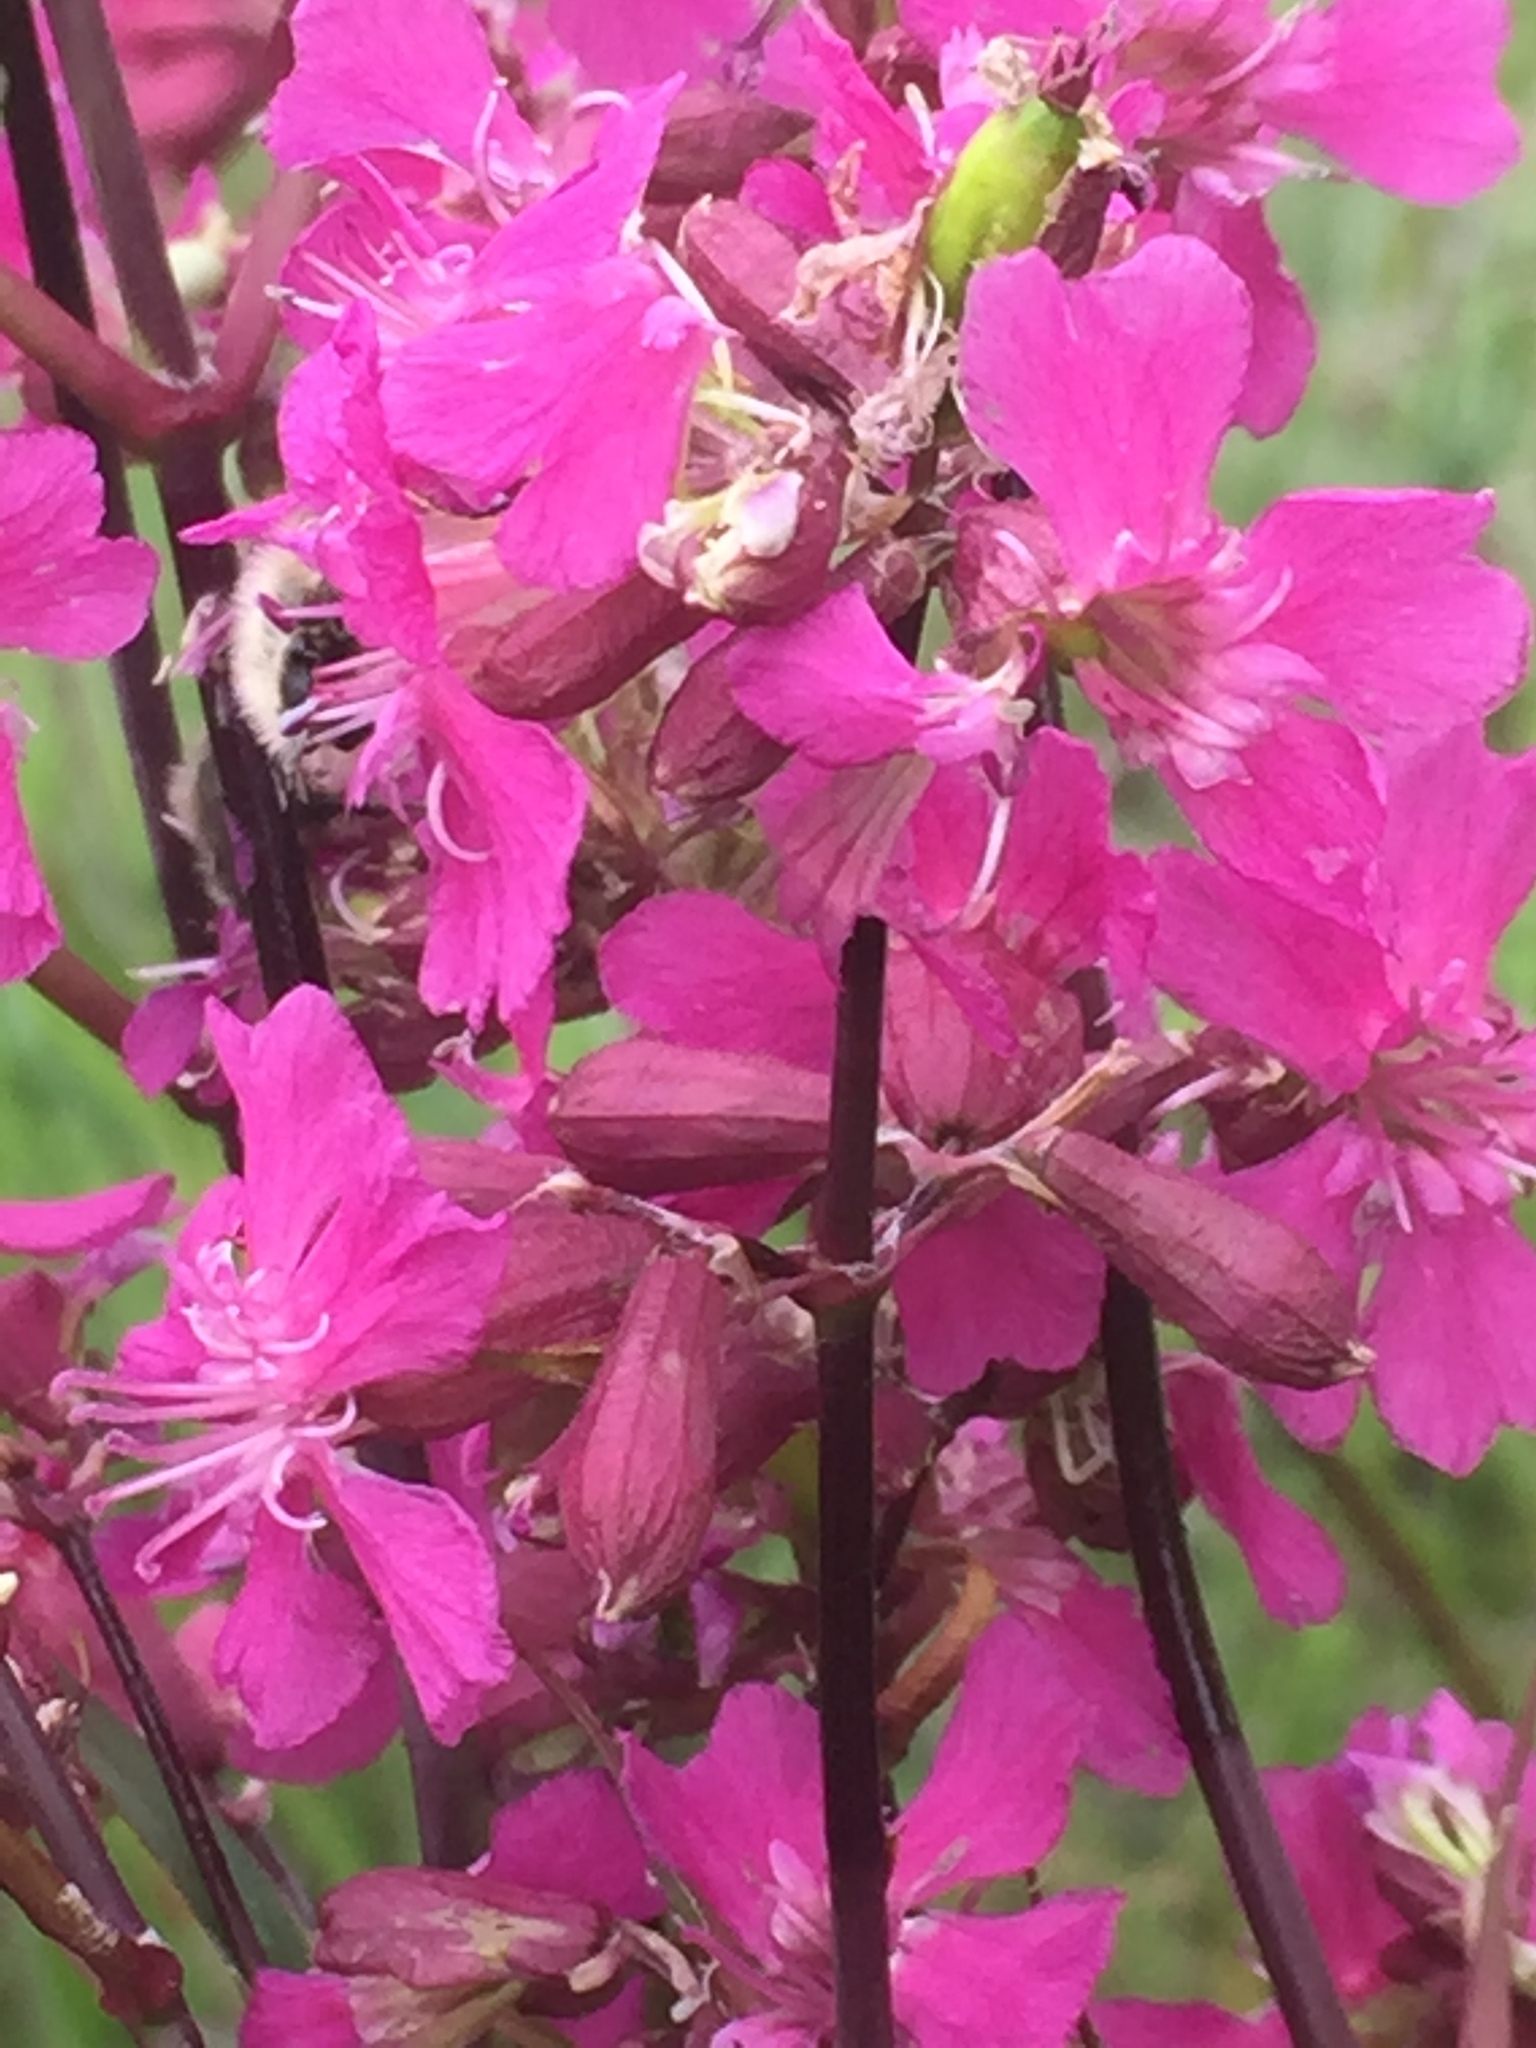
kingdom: Plantae
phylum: Tracheophyta
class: Magnoliopsida
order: Caryophyllales
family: Caryophyllaceae
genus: Viscaria
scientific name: Viscaria vulgaris
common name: Clammy campion
